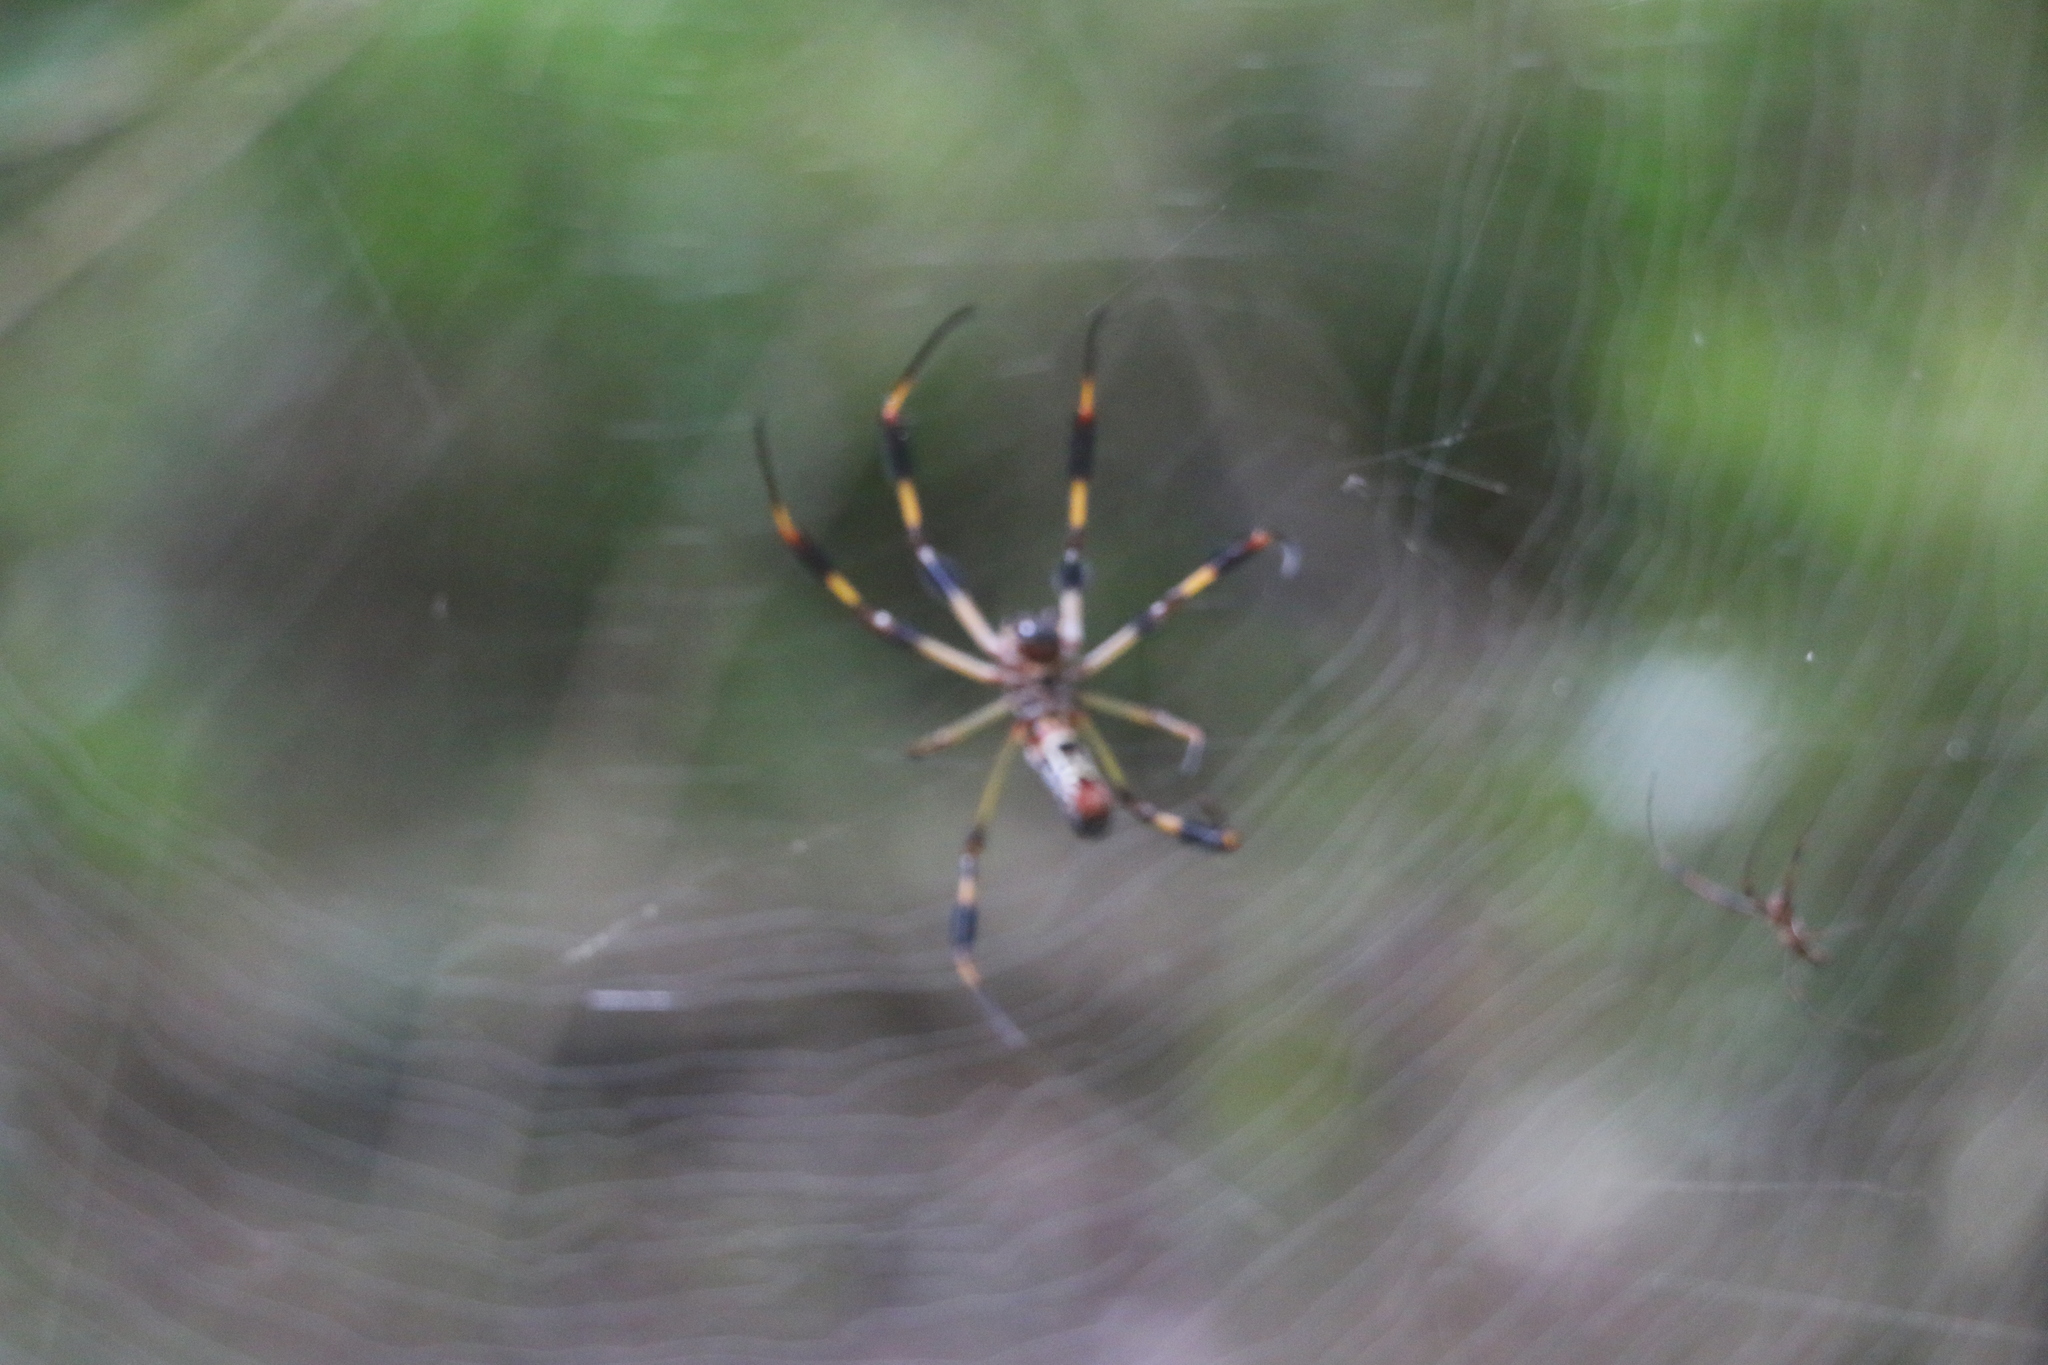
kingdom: Animalia
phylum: Arthropoda
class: Arachnida
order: Araneae
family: Araneidae
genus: Trichonephila
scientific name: Trichonephila clavipes
